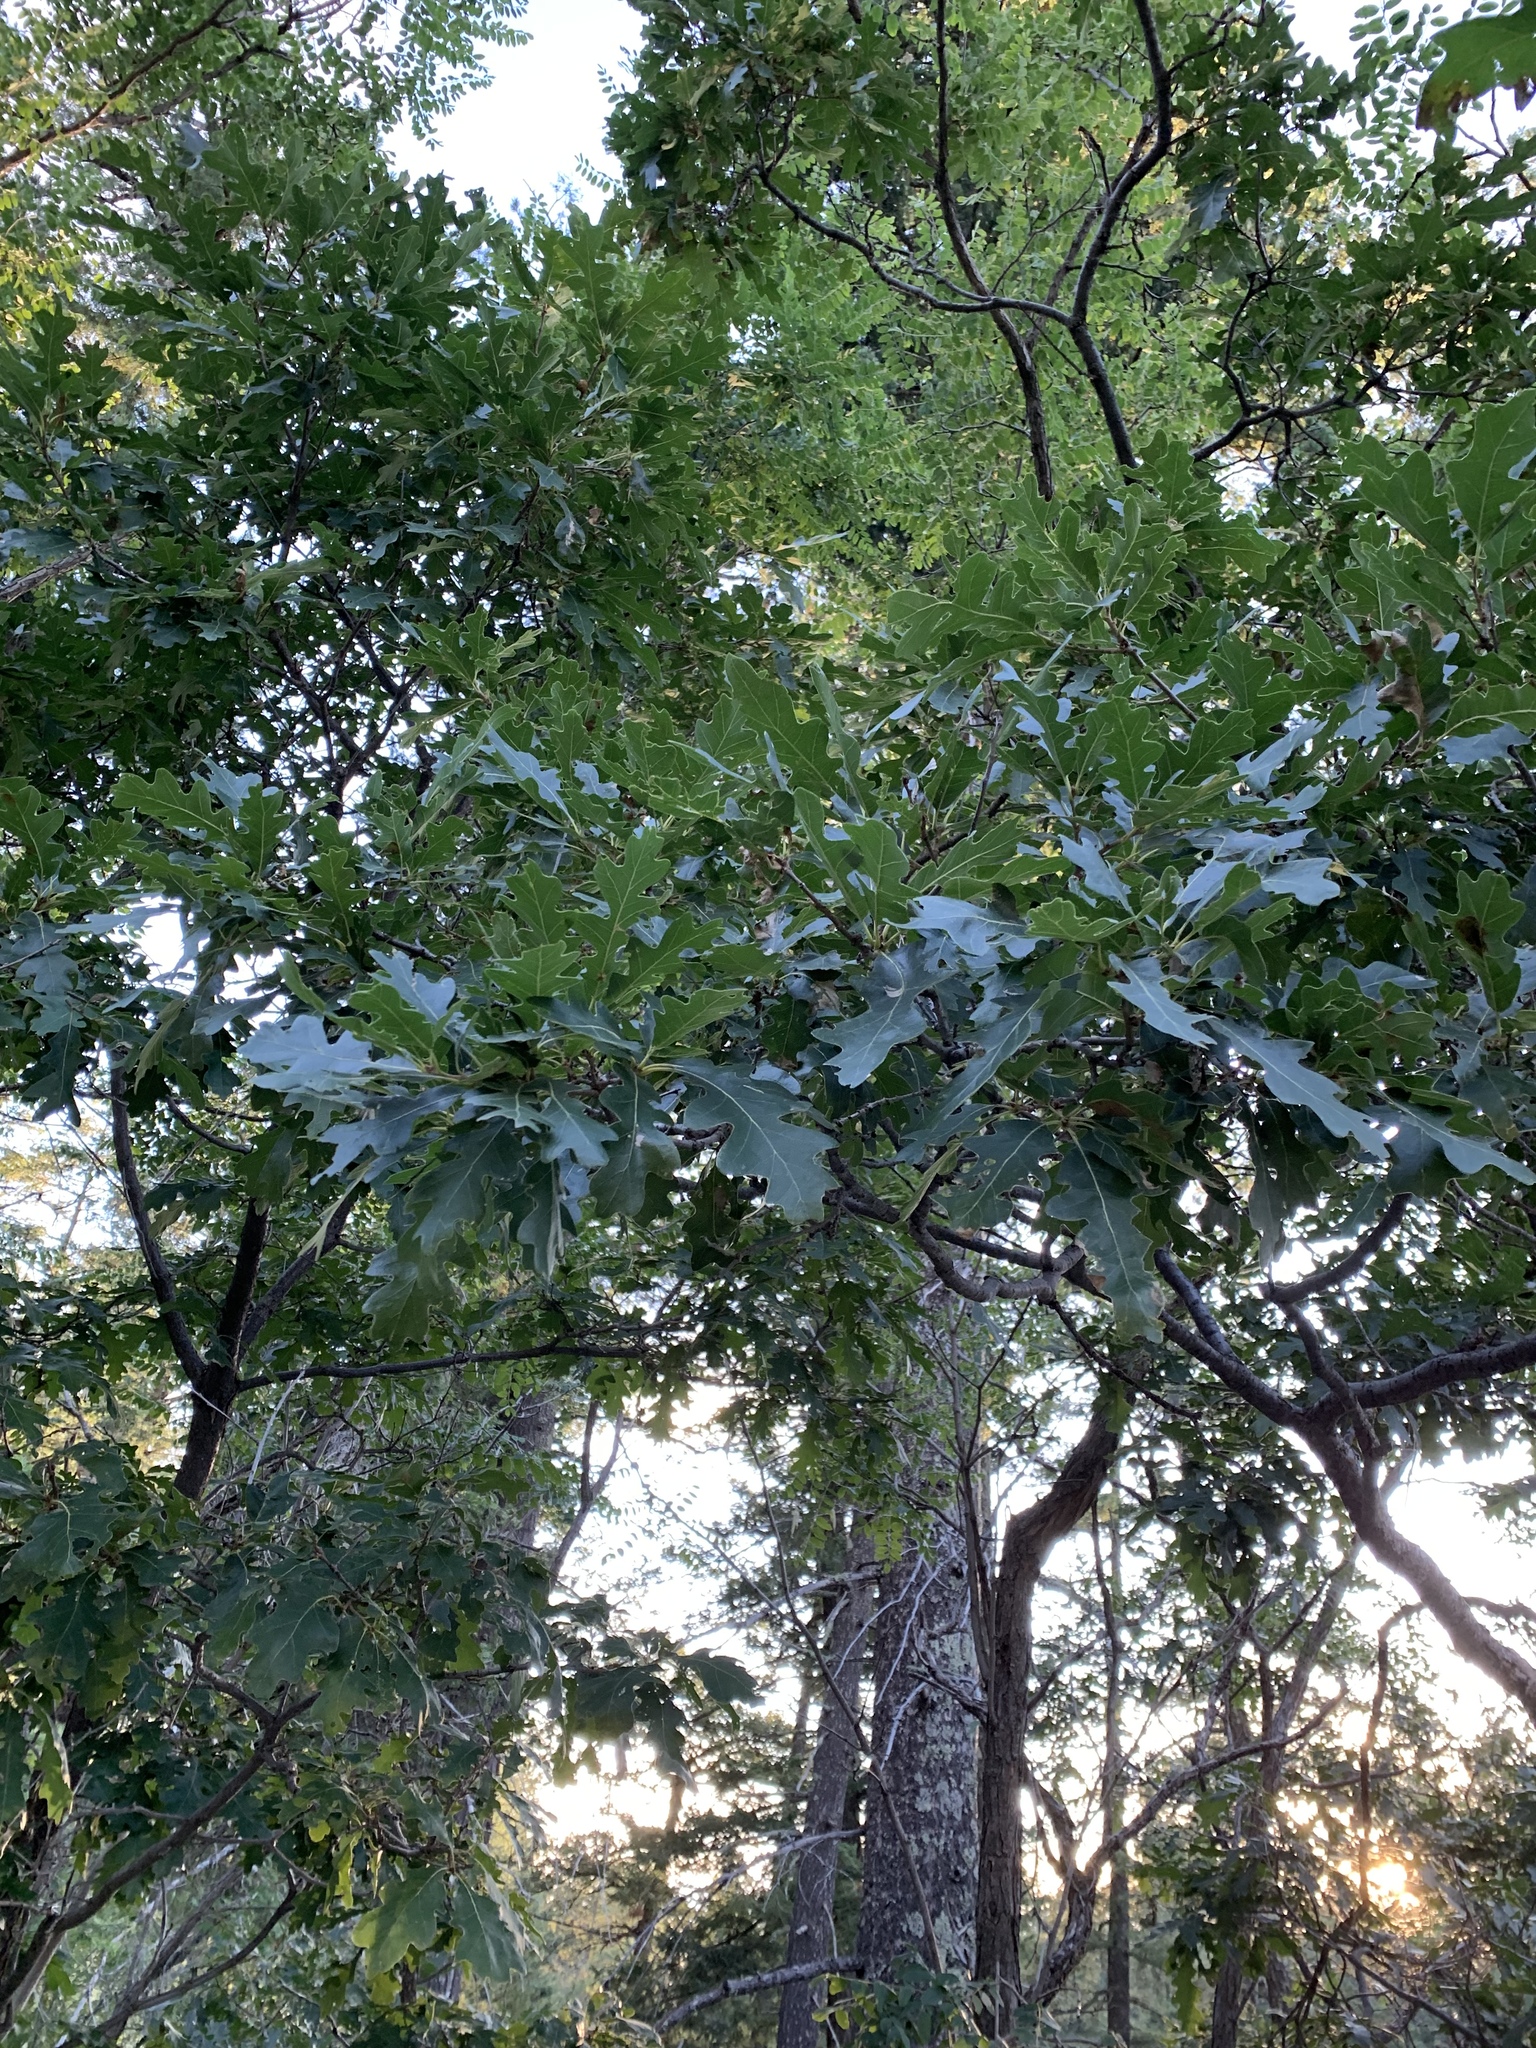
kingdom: Plantae
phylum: Tracheophyta
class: Magnoliopsida
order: Fagales
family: Fagaceae
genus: Quercus
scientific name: Quercus gambelii
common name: Gambel oak
